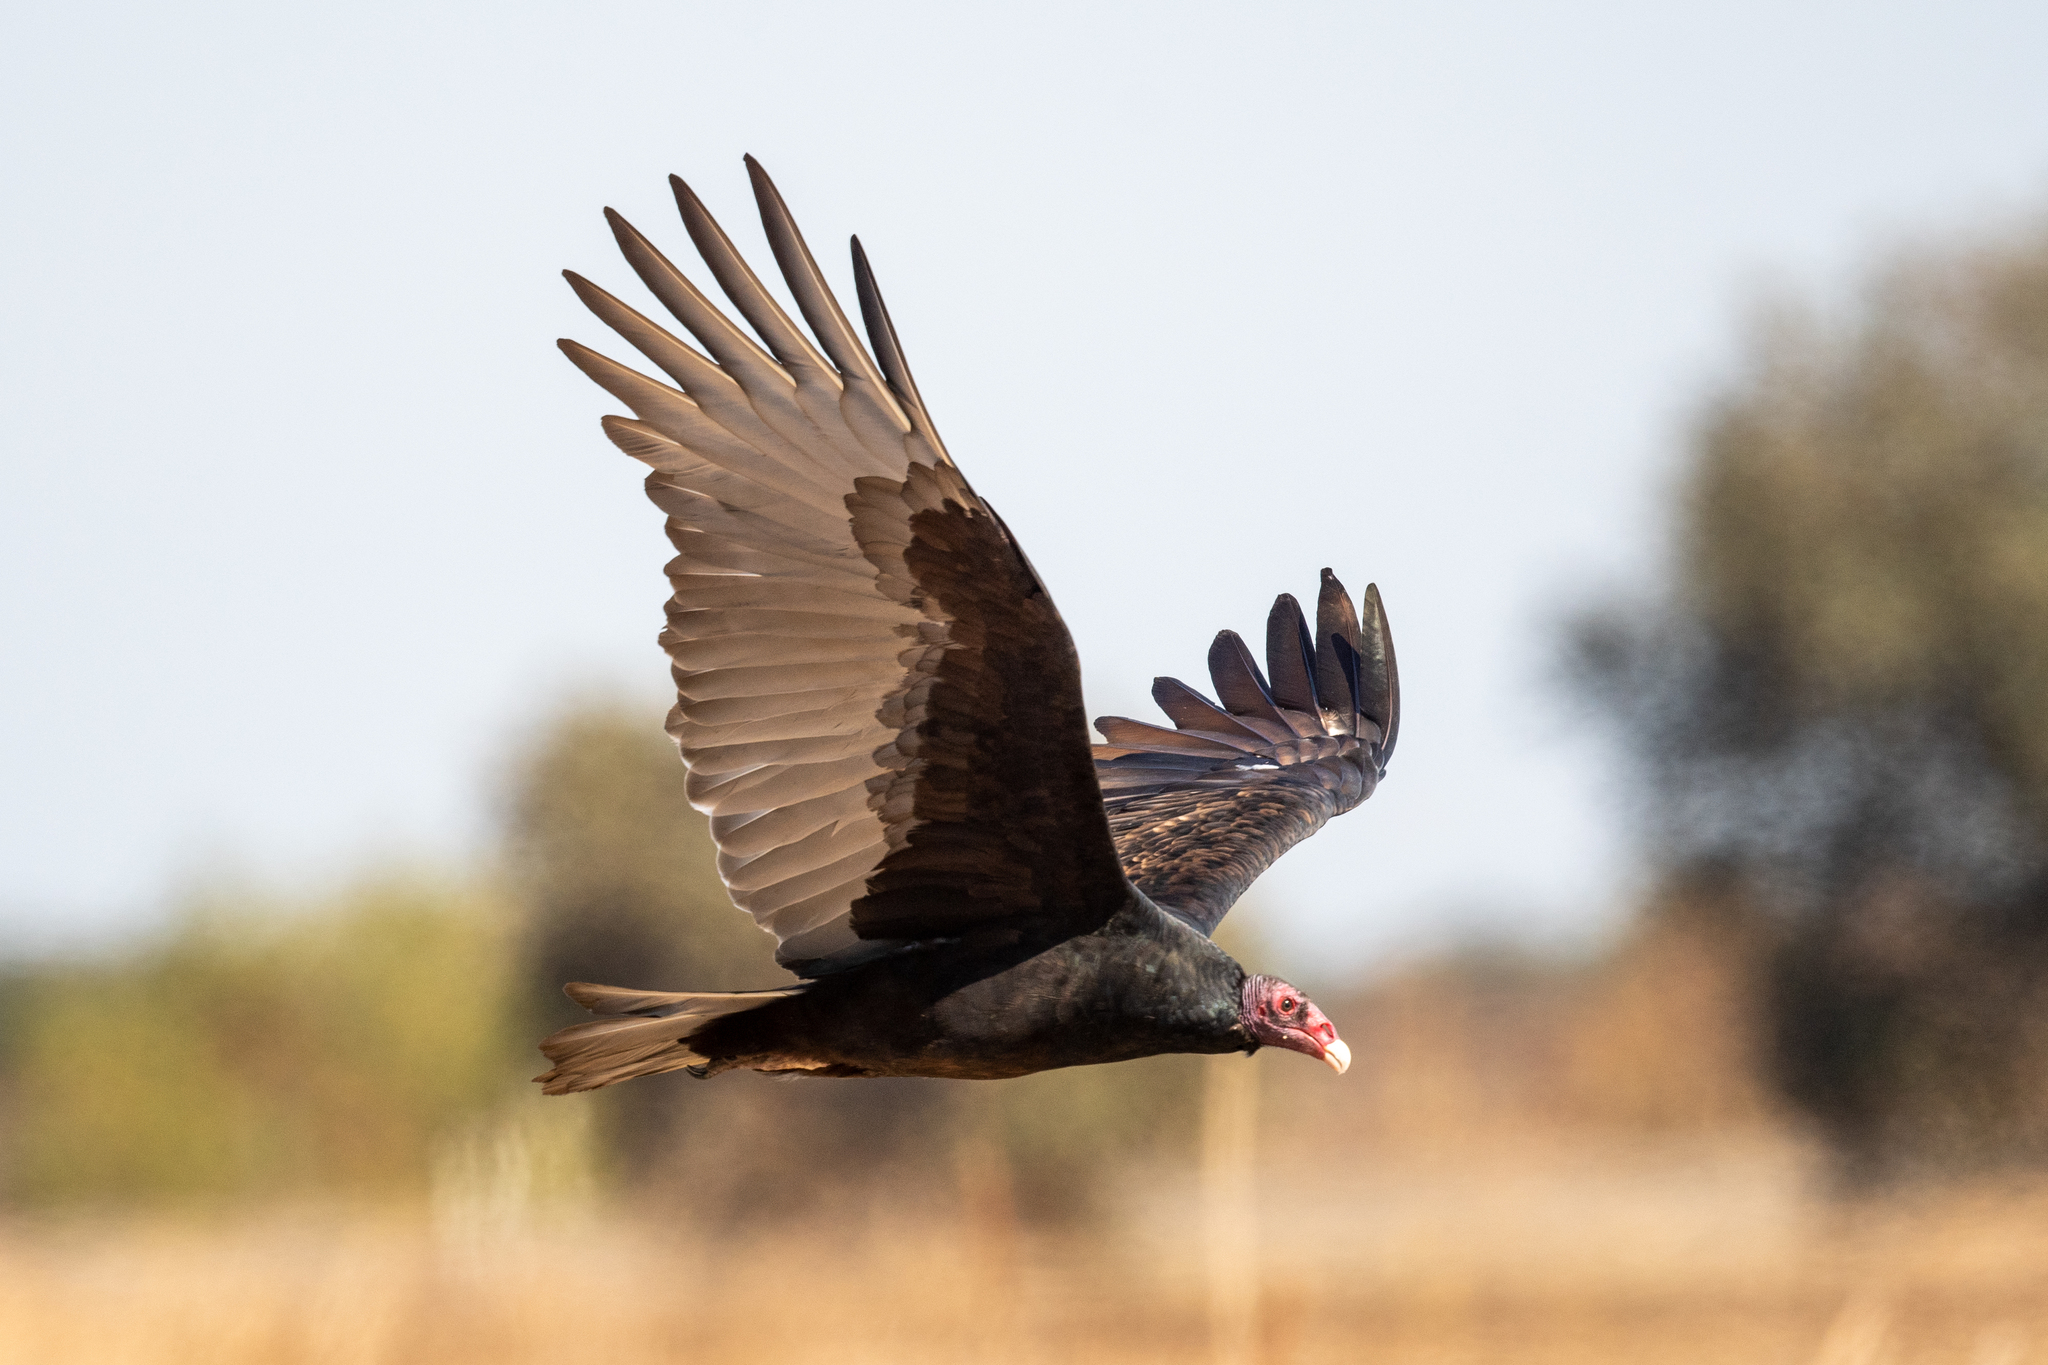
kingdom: Animalia
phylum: Chordata
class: Aves
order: Accipitriformes
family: Cathartidae
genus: Cathartes
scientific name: Cathartes aura
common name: Turkey vulture
